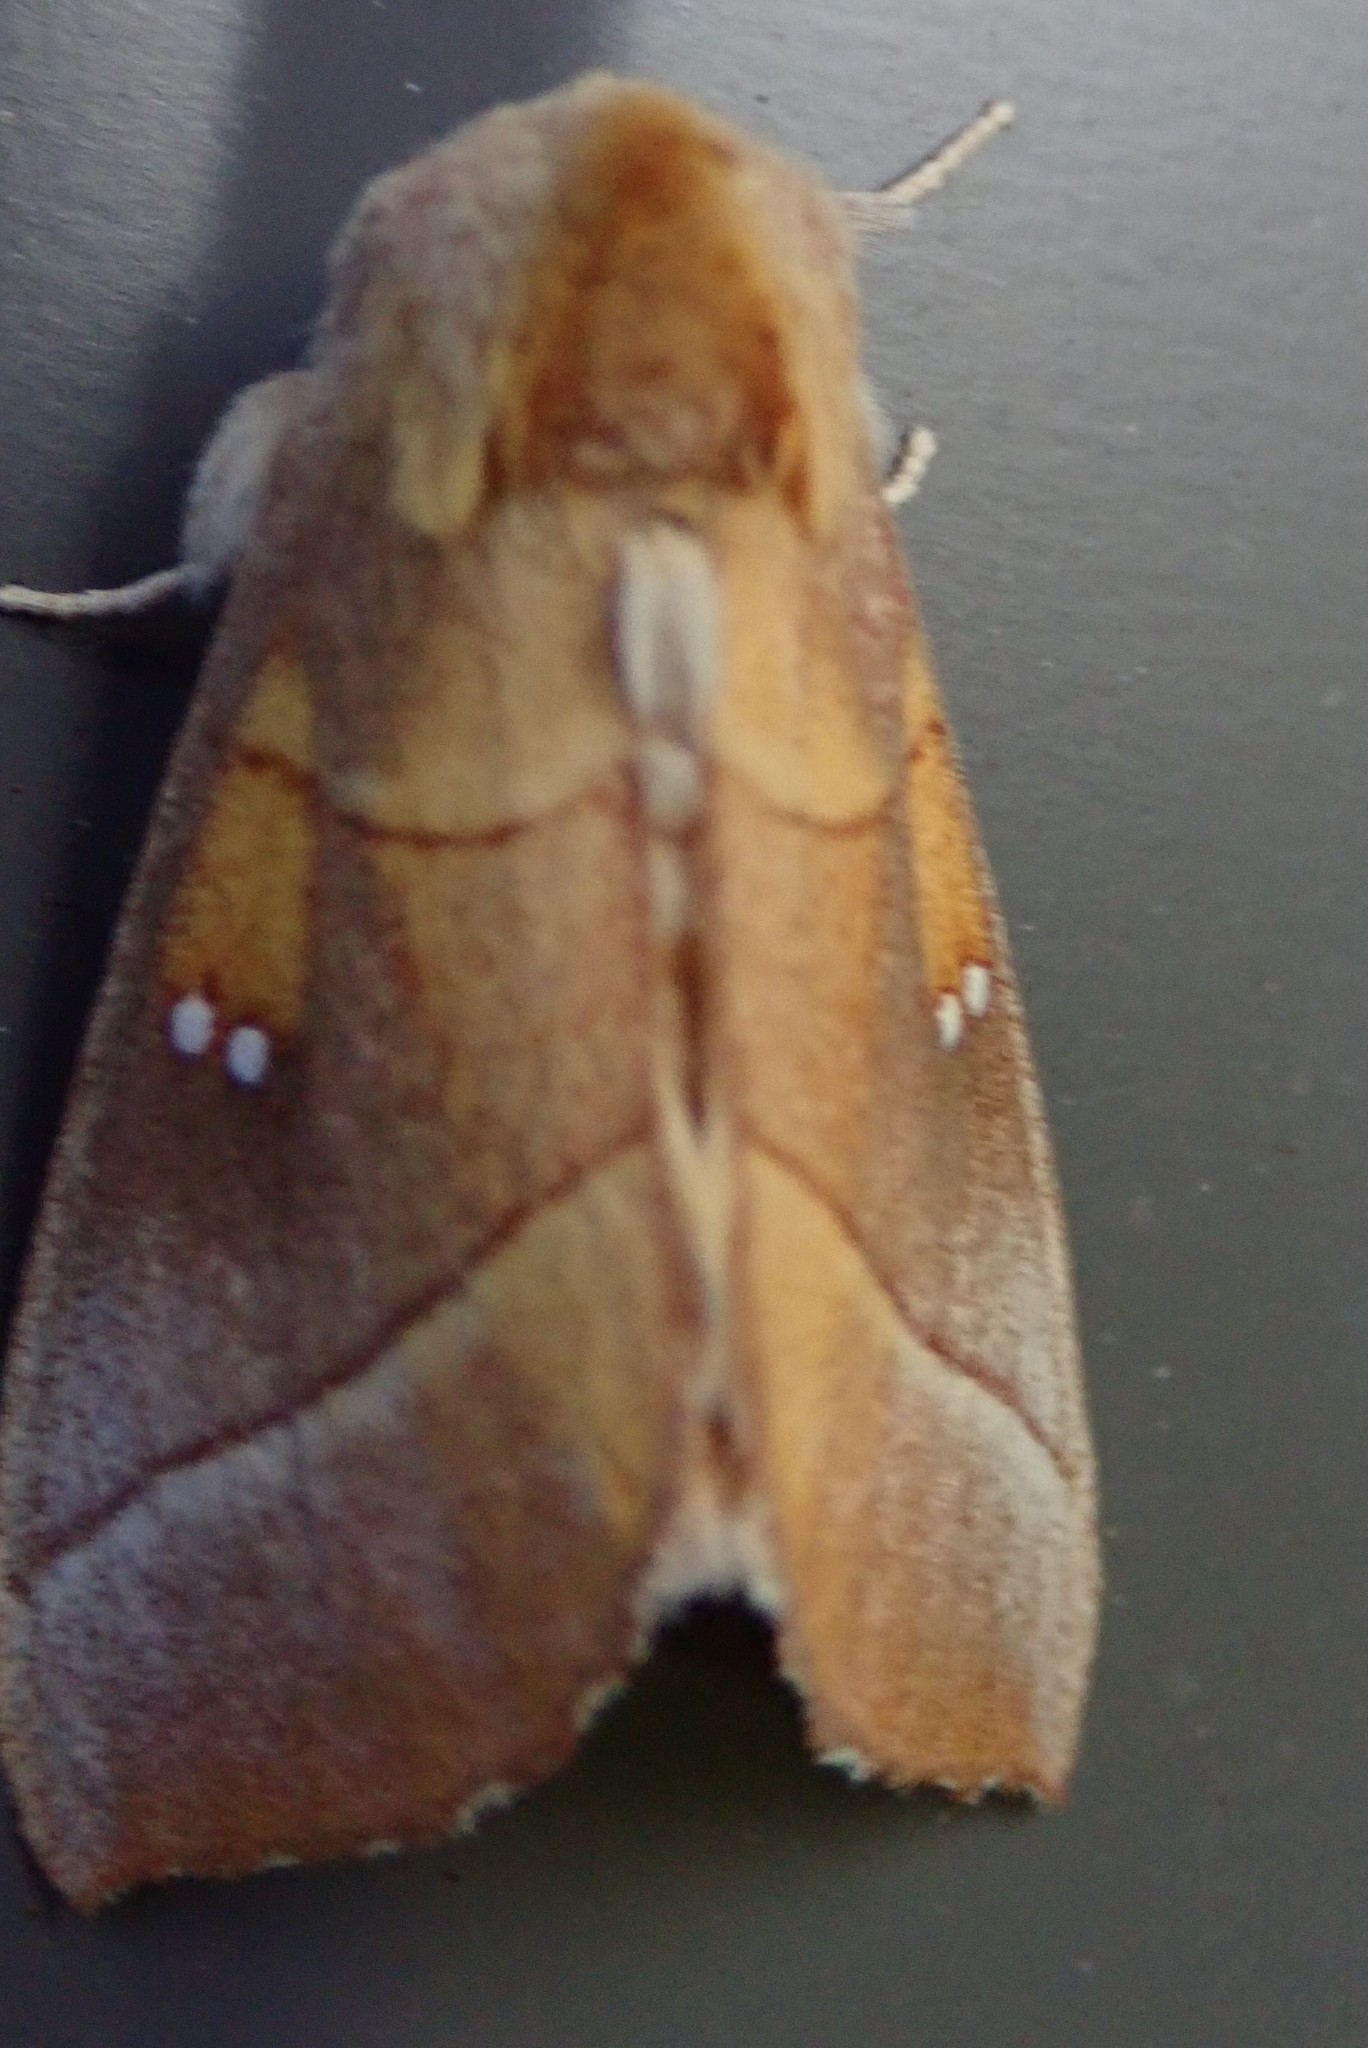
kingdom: Animalia
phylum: Arthropoda
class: Insecta
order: Lepidoptera
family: Notodontidae
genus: Nadata
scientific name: Nadata gibbosa
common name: White-dotted prominent
